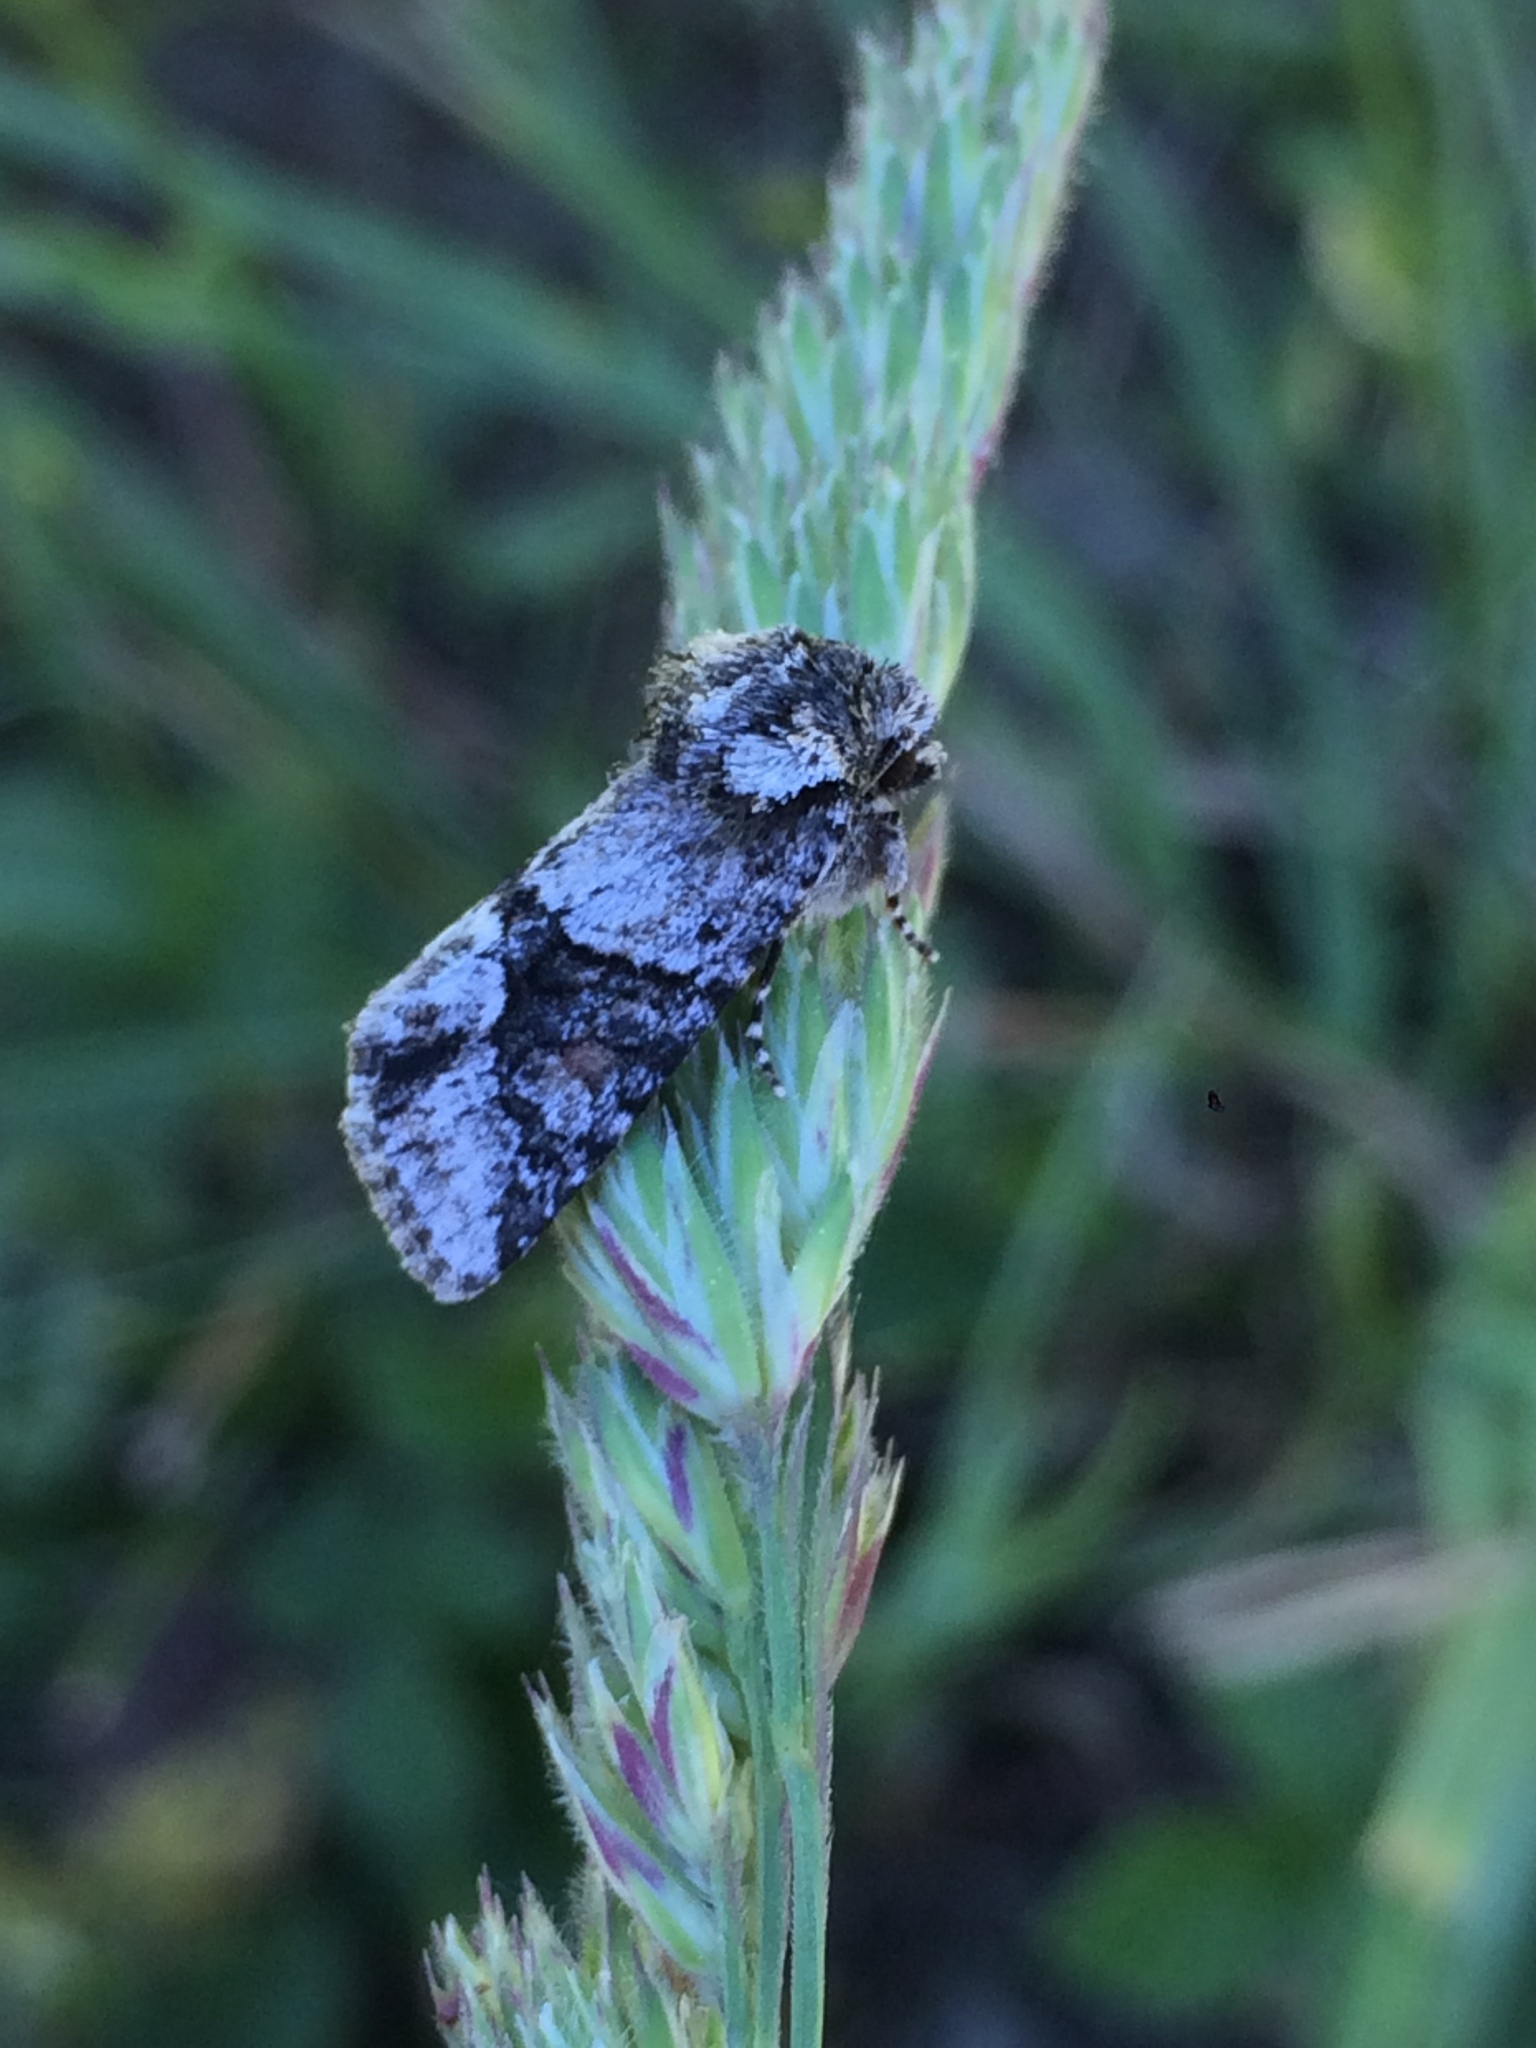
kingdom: Animalia
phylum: Arthropoda
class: Insecta
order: Lepidoptera
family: Noctuidae
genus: Lacinipolia
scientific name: Lacinipolia quadrilineata
